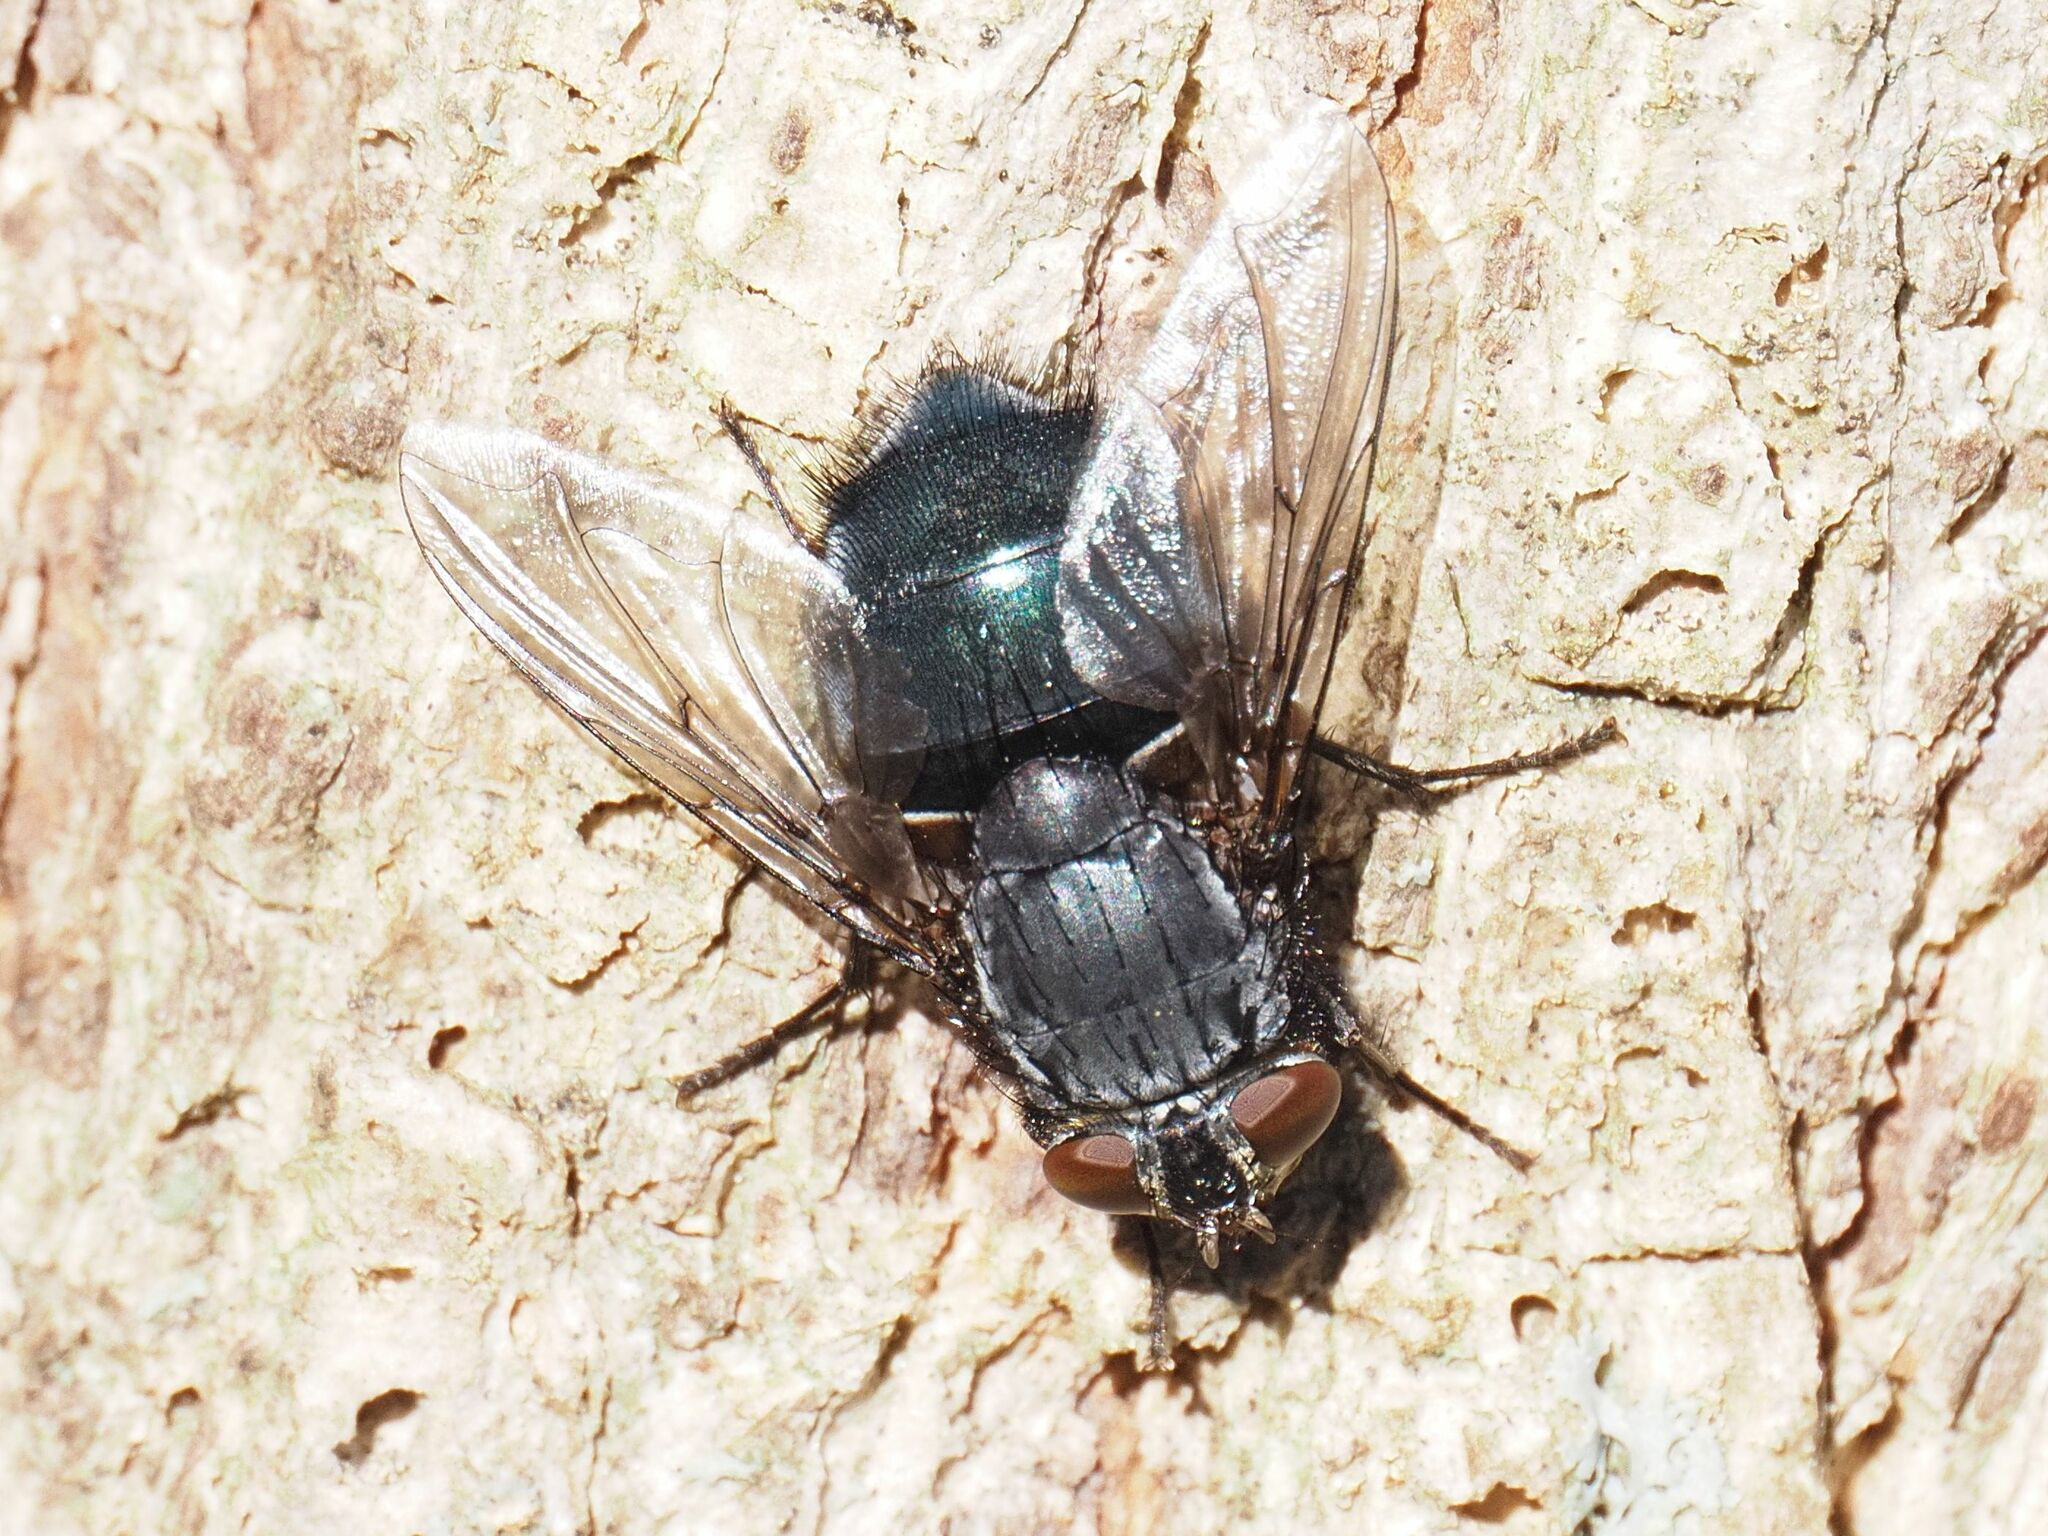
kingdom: Animalia
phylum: Arthropoda
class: Insecta
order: Diptera
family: Calliphoridae
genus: Calliphora
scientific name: Calliphora vicina
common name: Common blow flie
